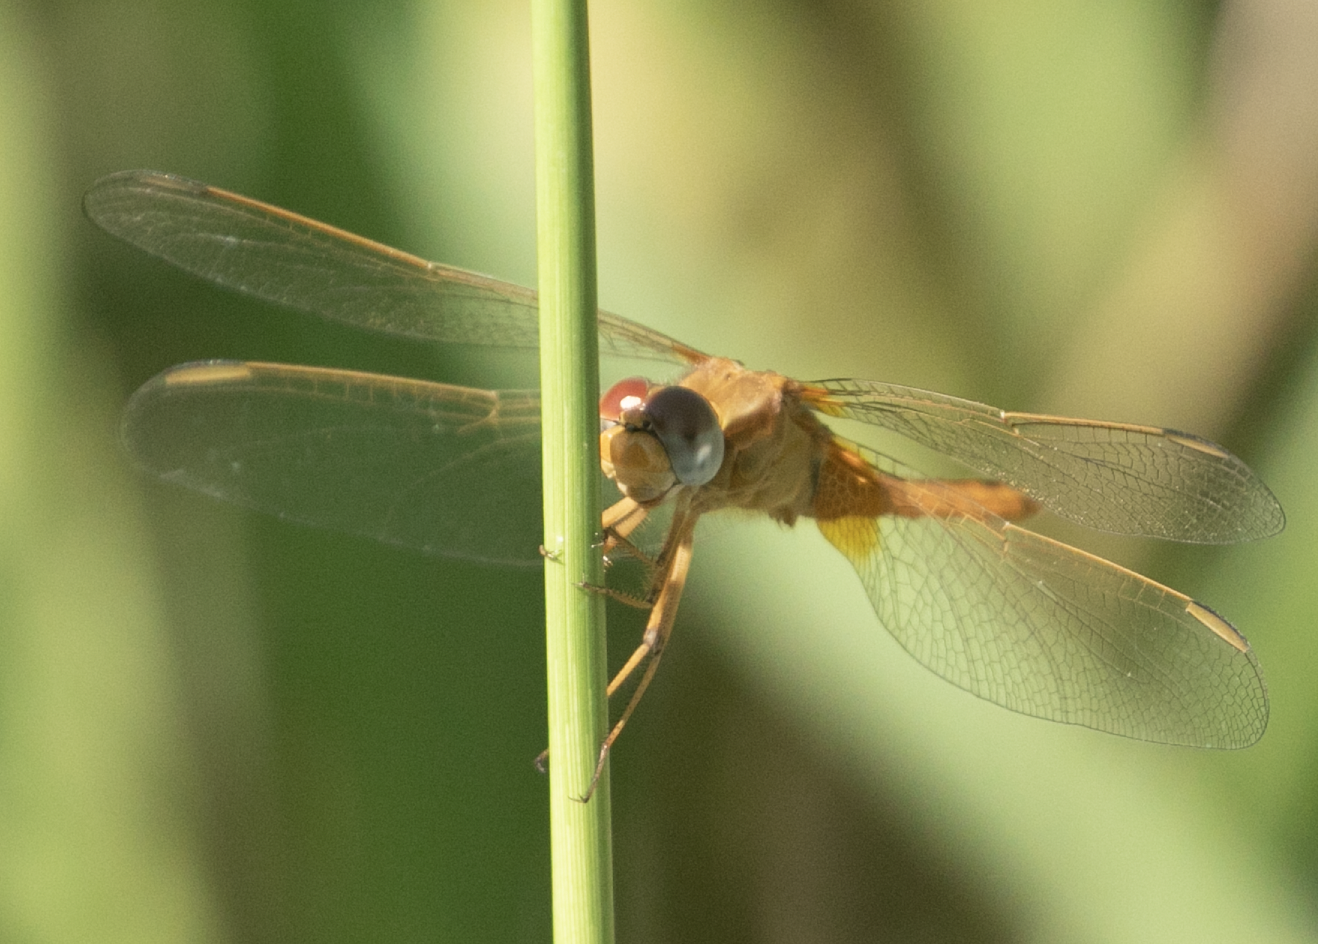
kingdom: Animalia
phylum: Arthropoda
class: Insecta
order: Odonata
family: Libellulidae
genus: Crocothemis
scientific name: Crocothemis erythraea
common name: Scarlet dragonfly
